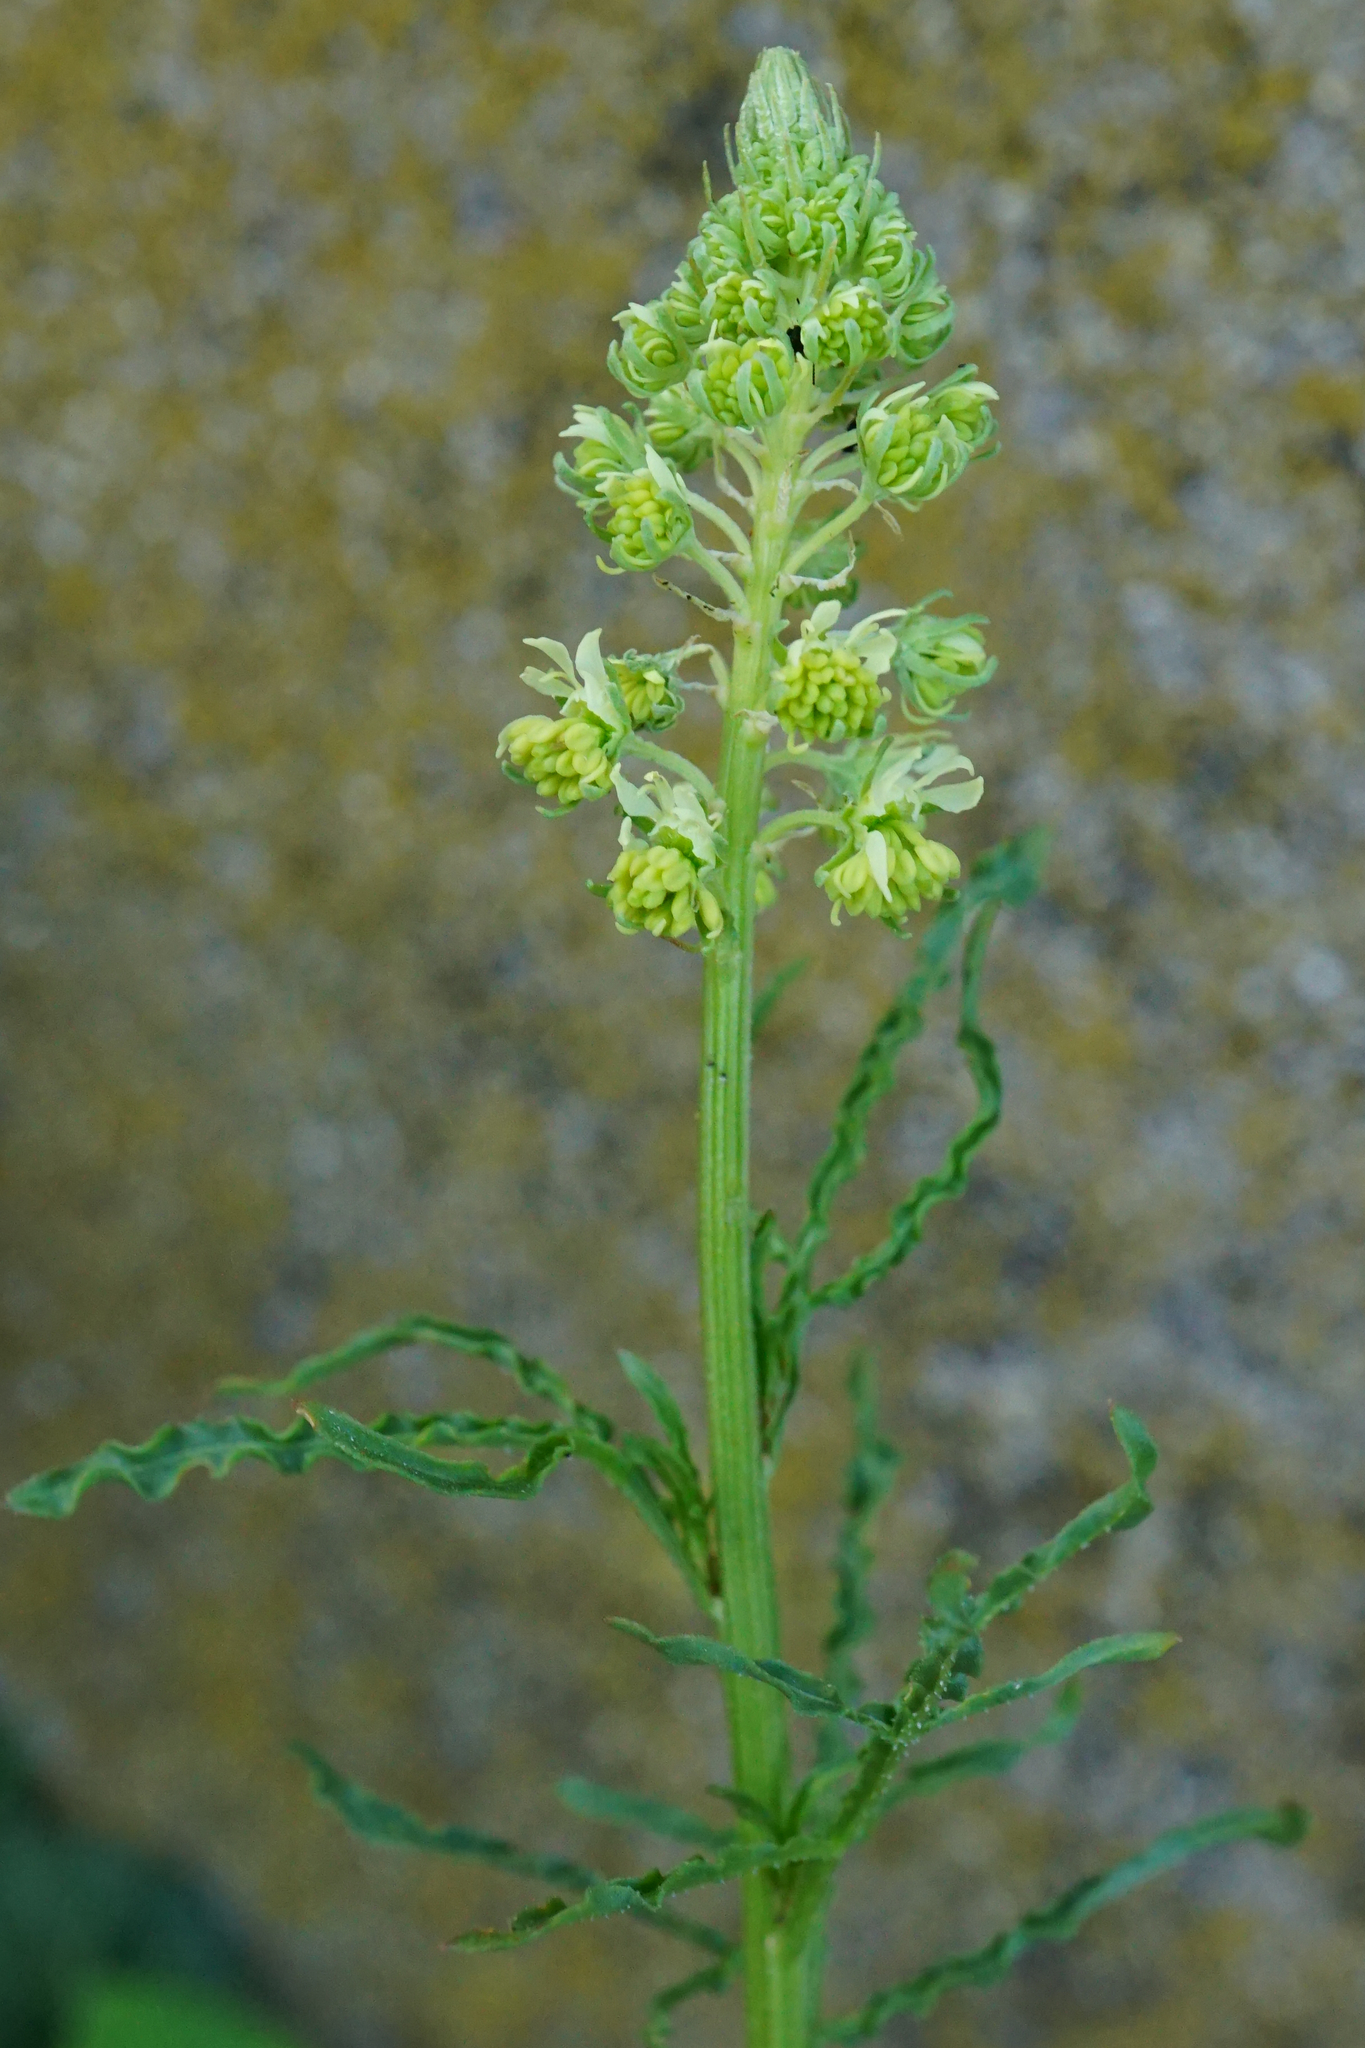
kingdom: Plantae
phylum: Tracheophyta
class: Magnoliopsida
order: Brassicales
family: Resedaceae
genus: Reseda
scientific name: Reseda lutea
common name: Wild mignonette
